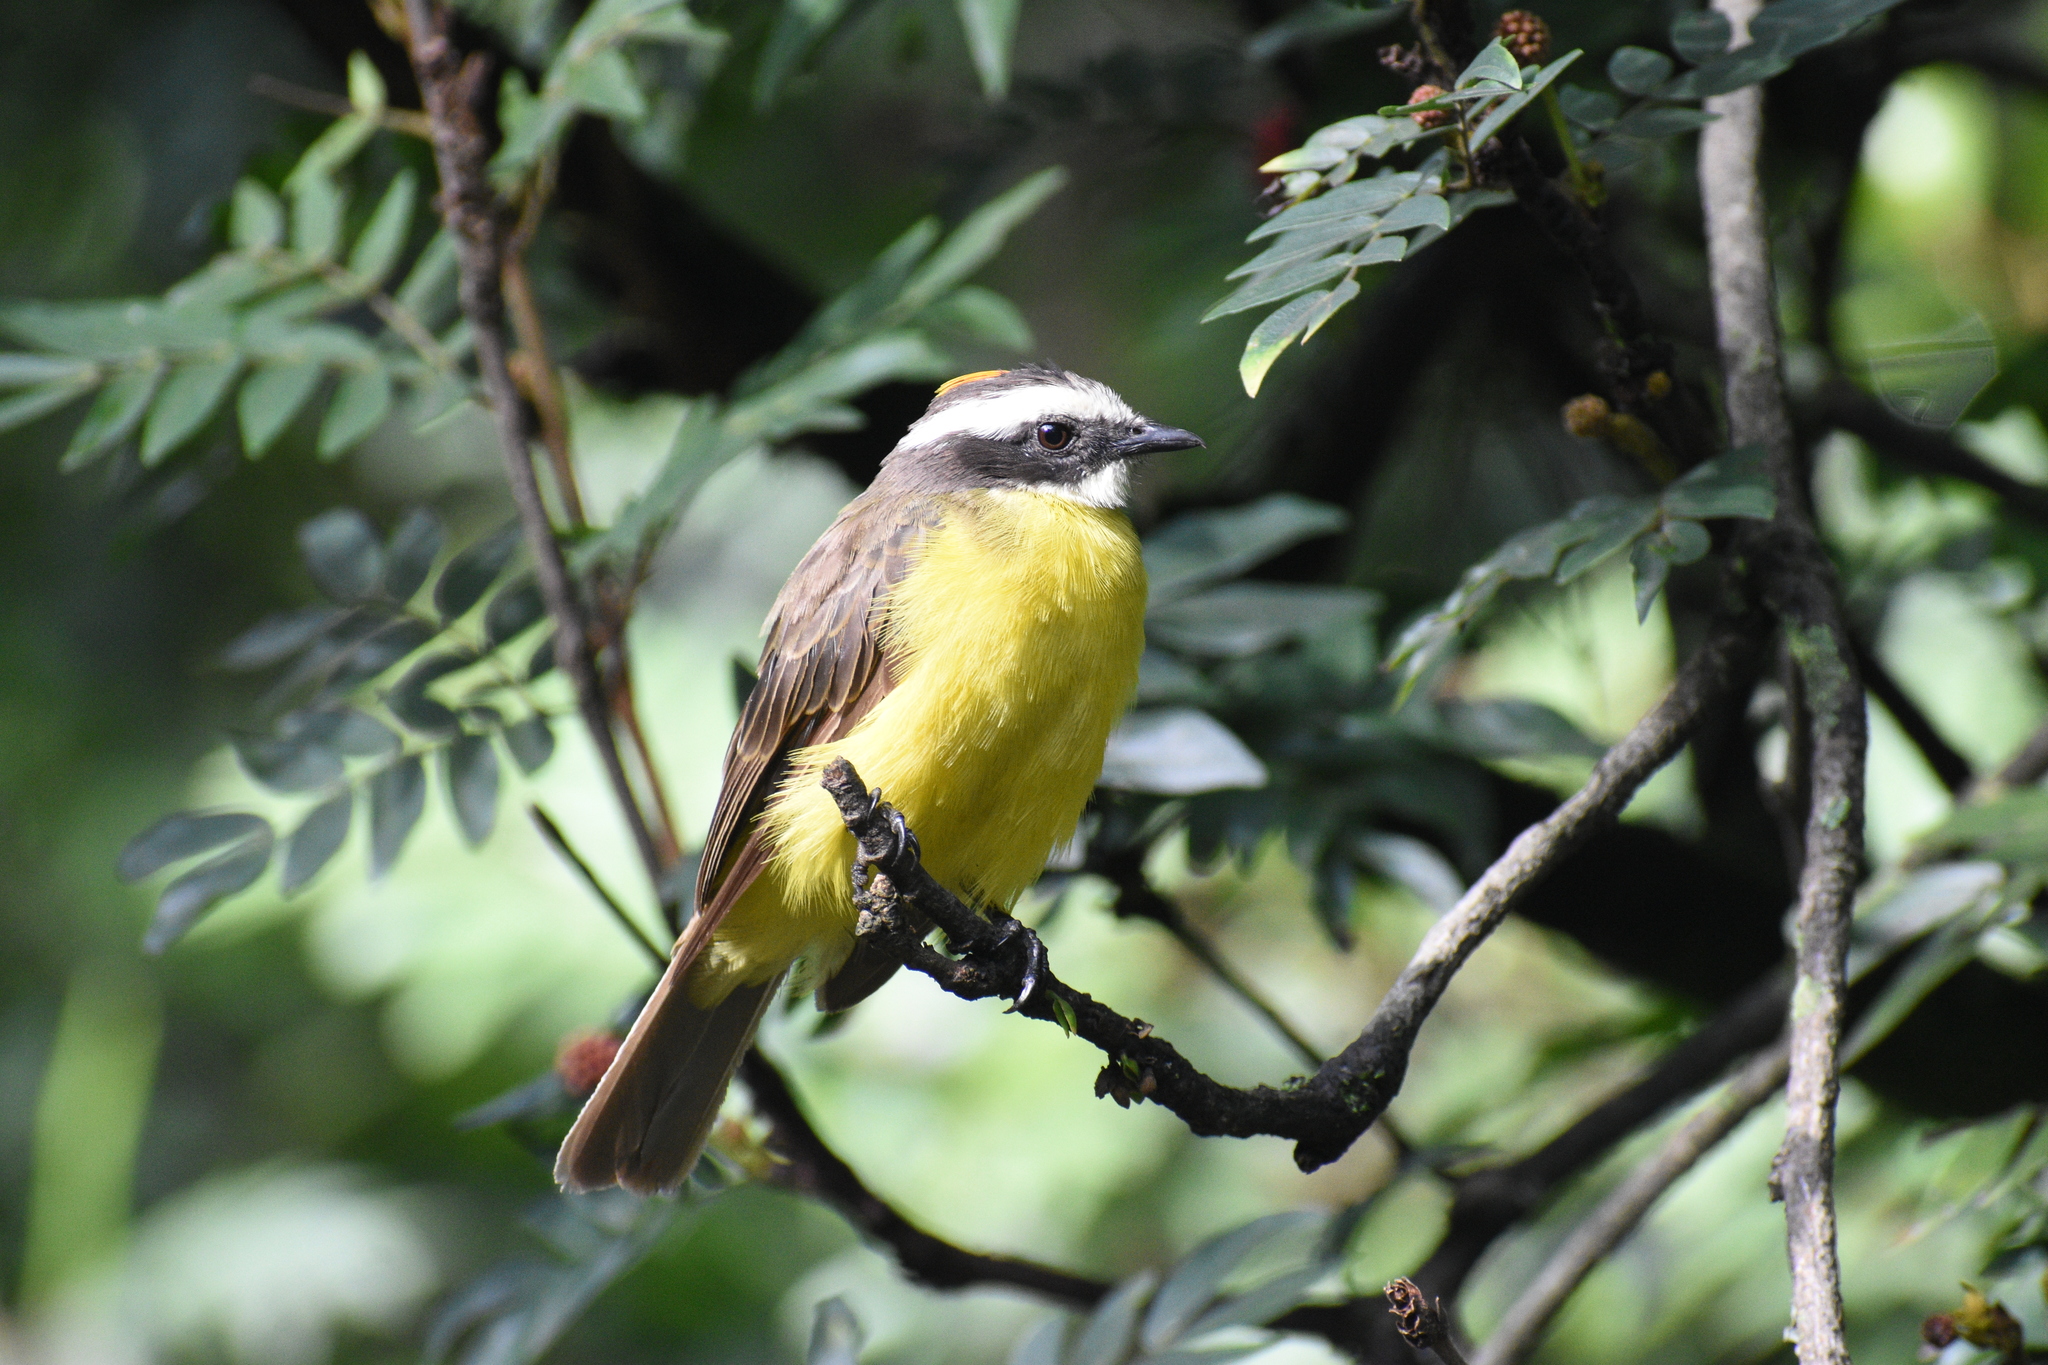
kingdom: Animalia
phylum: Chordata
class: Aves
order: Passeriformes
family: Tyrannidae
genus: Myiozetetes
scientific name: Myiozetetes cayanensis
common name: Rusty-margined flycatcher
